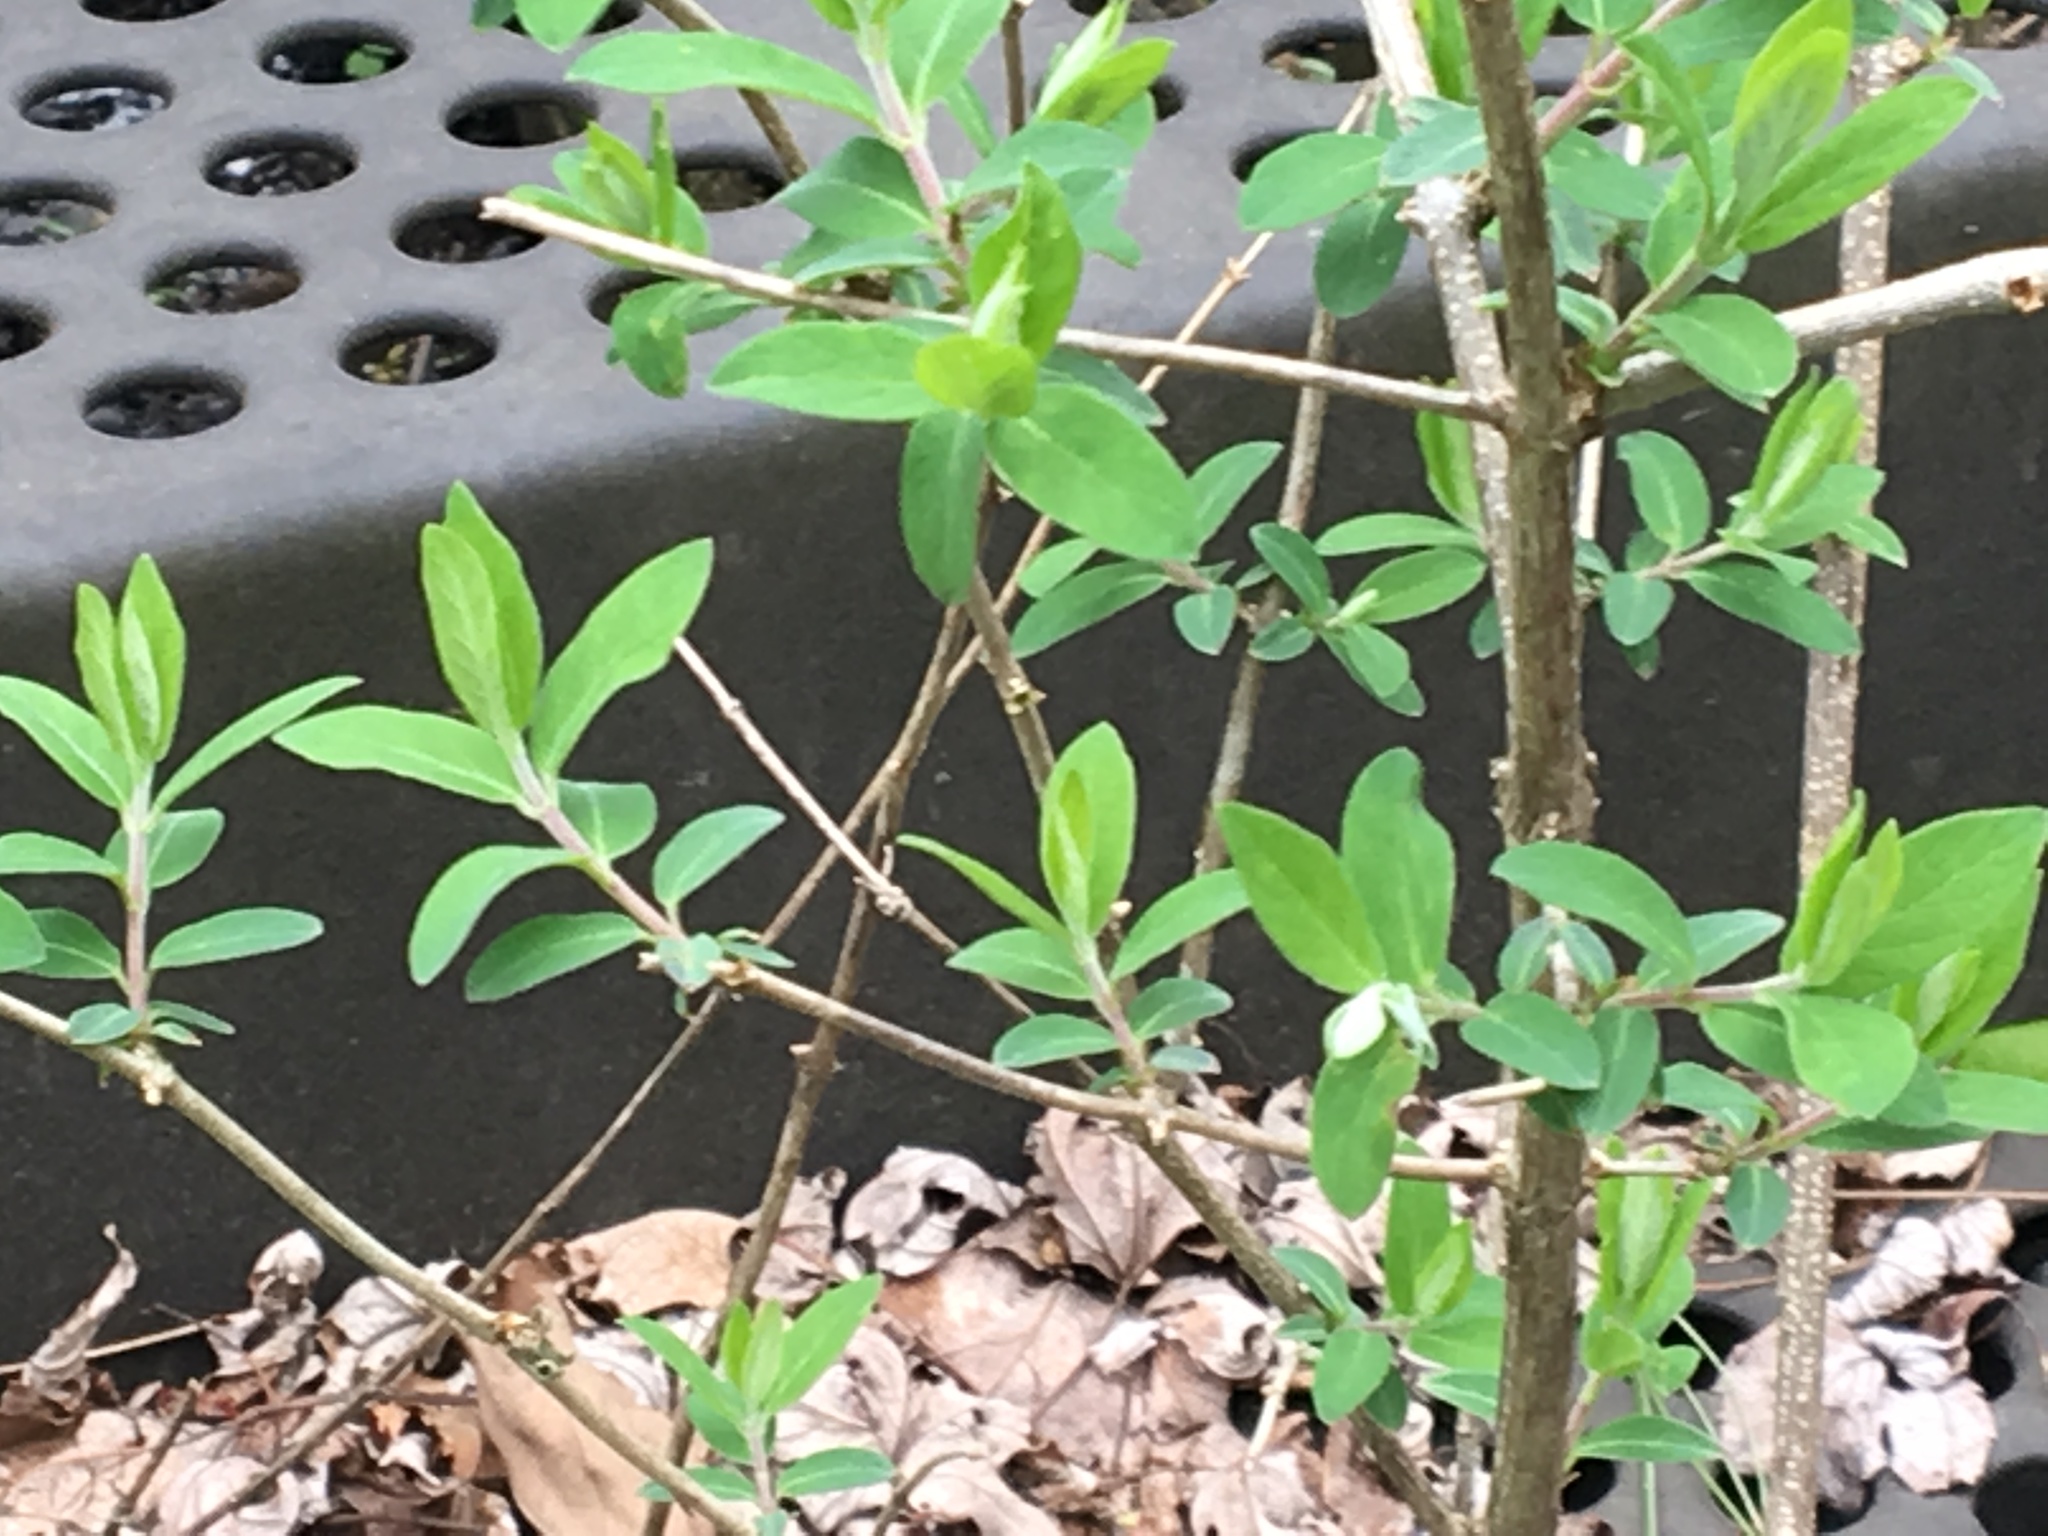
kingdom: Plantae
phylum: Tracheophyta
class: Magnoliopsida
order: Dipsacales
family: Caprifoliaceae
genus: Lonicera
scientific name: Lonicera
